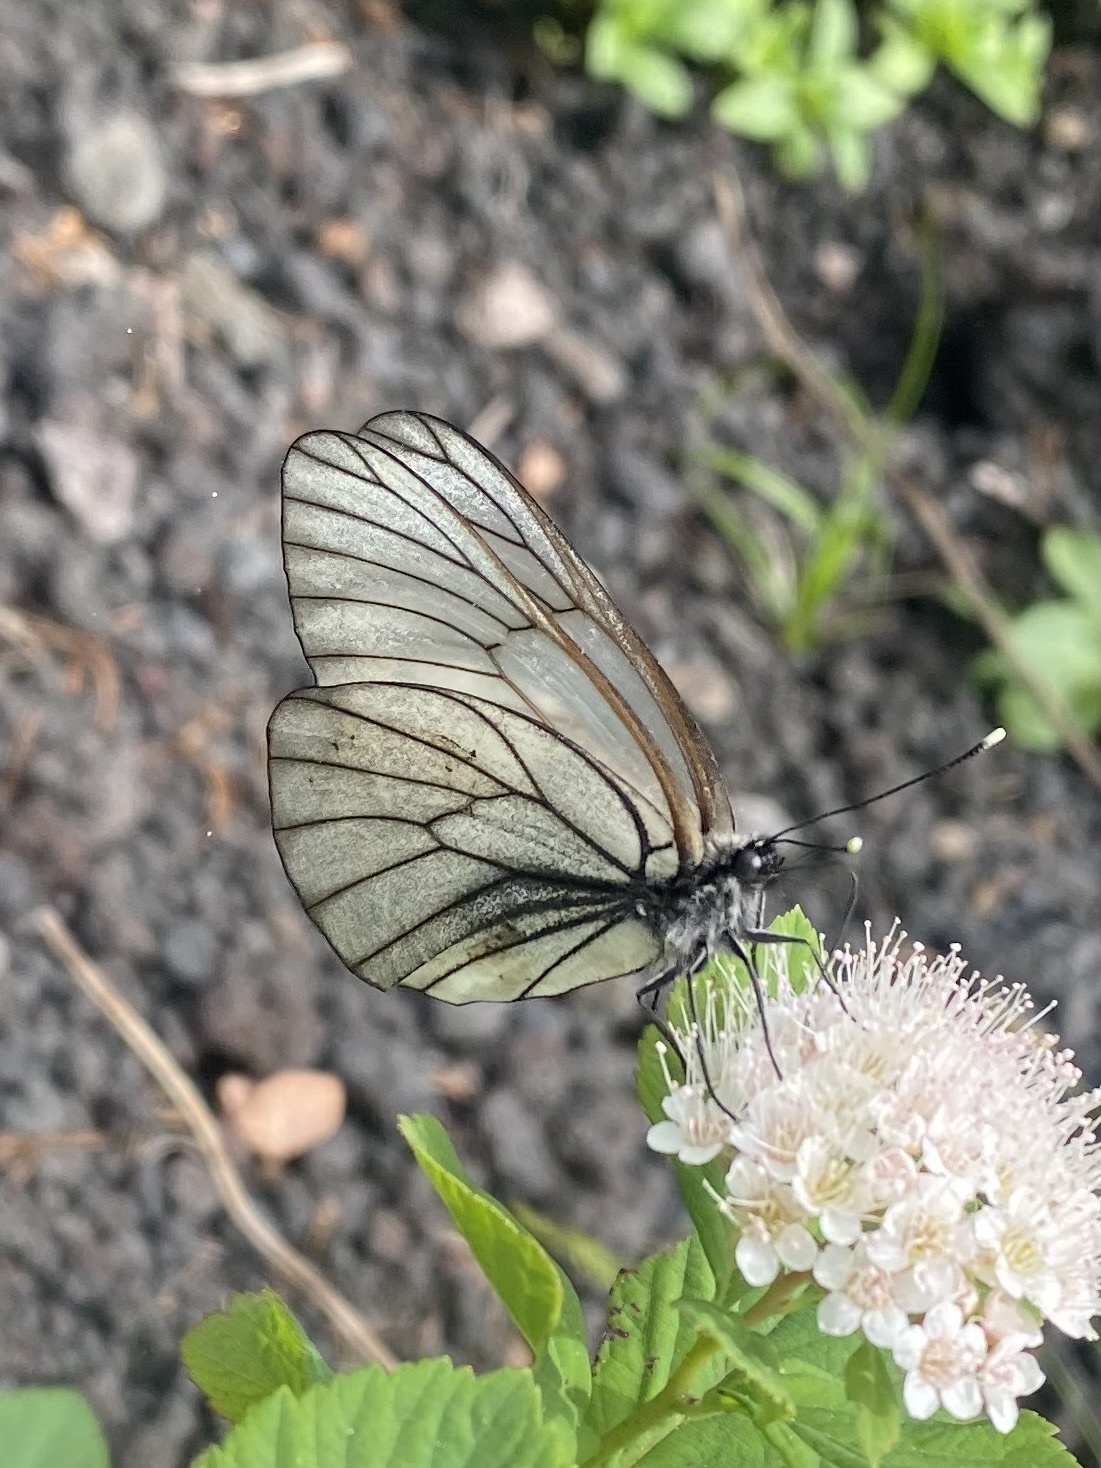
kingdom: Animalia
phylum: Arthropoda
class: Insecta
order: Lepidoptera
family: Pieridae
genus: Aporia
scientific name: Aporia crataegi
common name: Black-veined white
